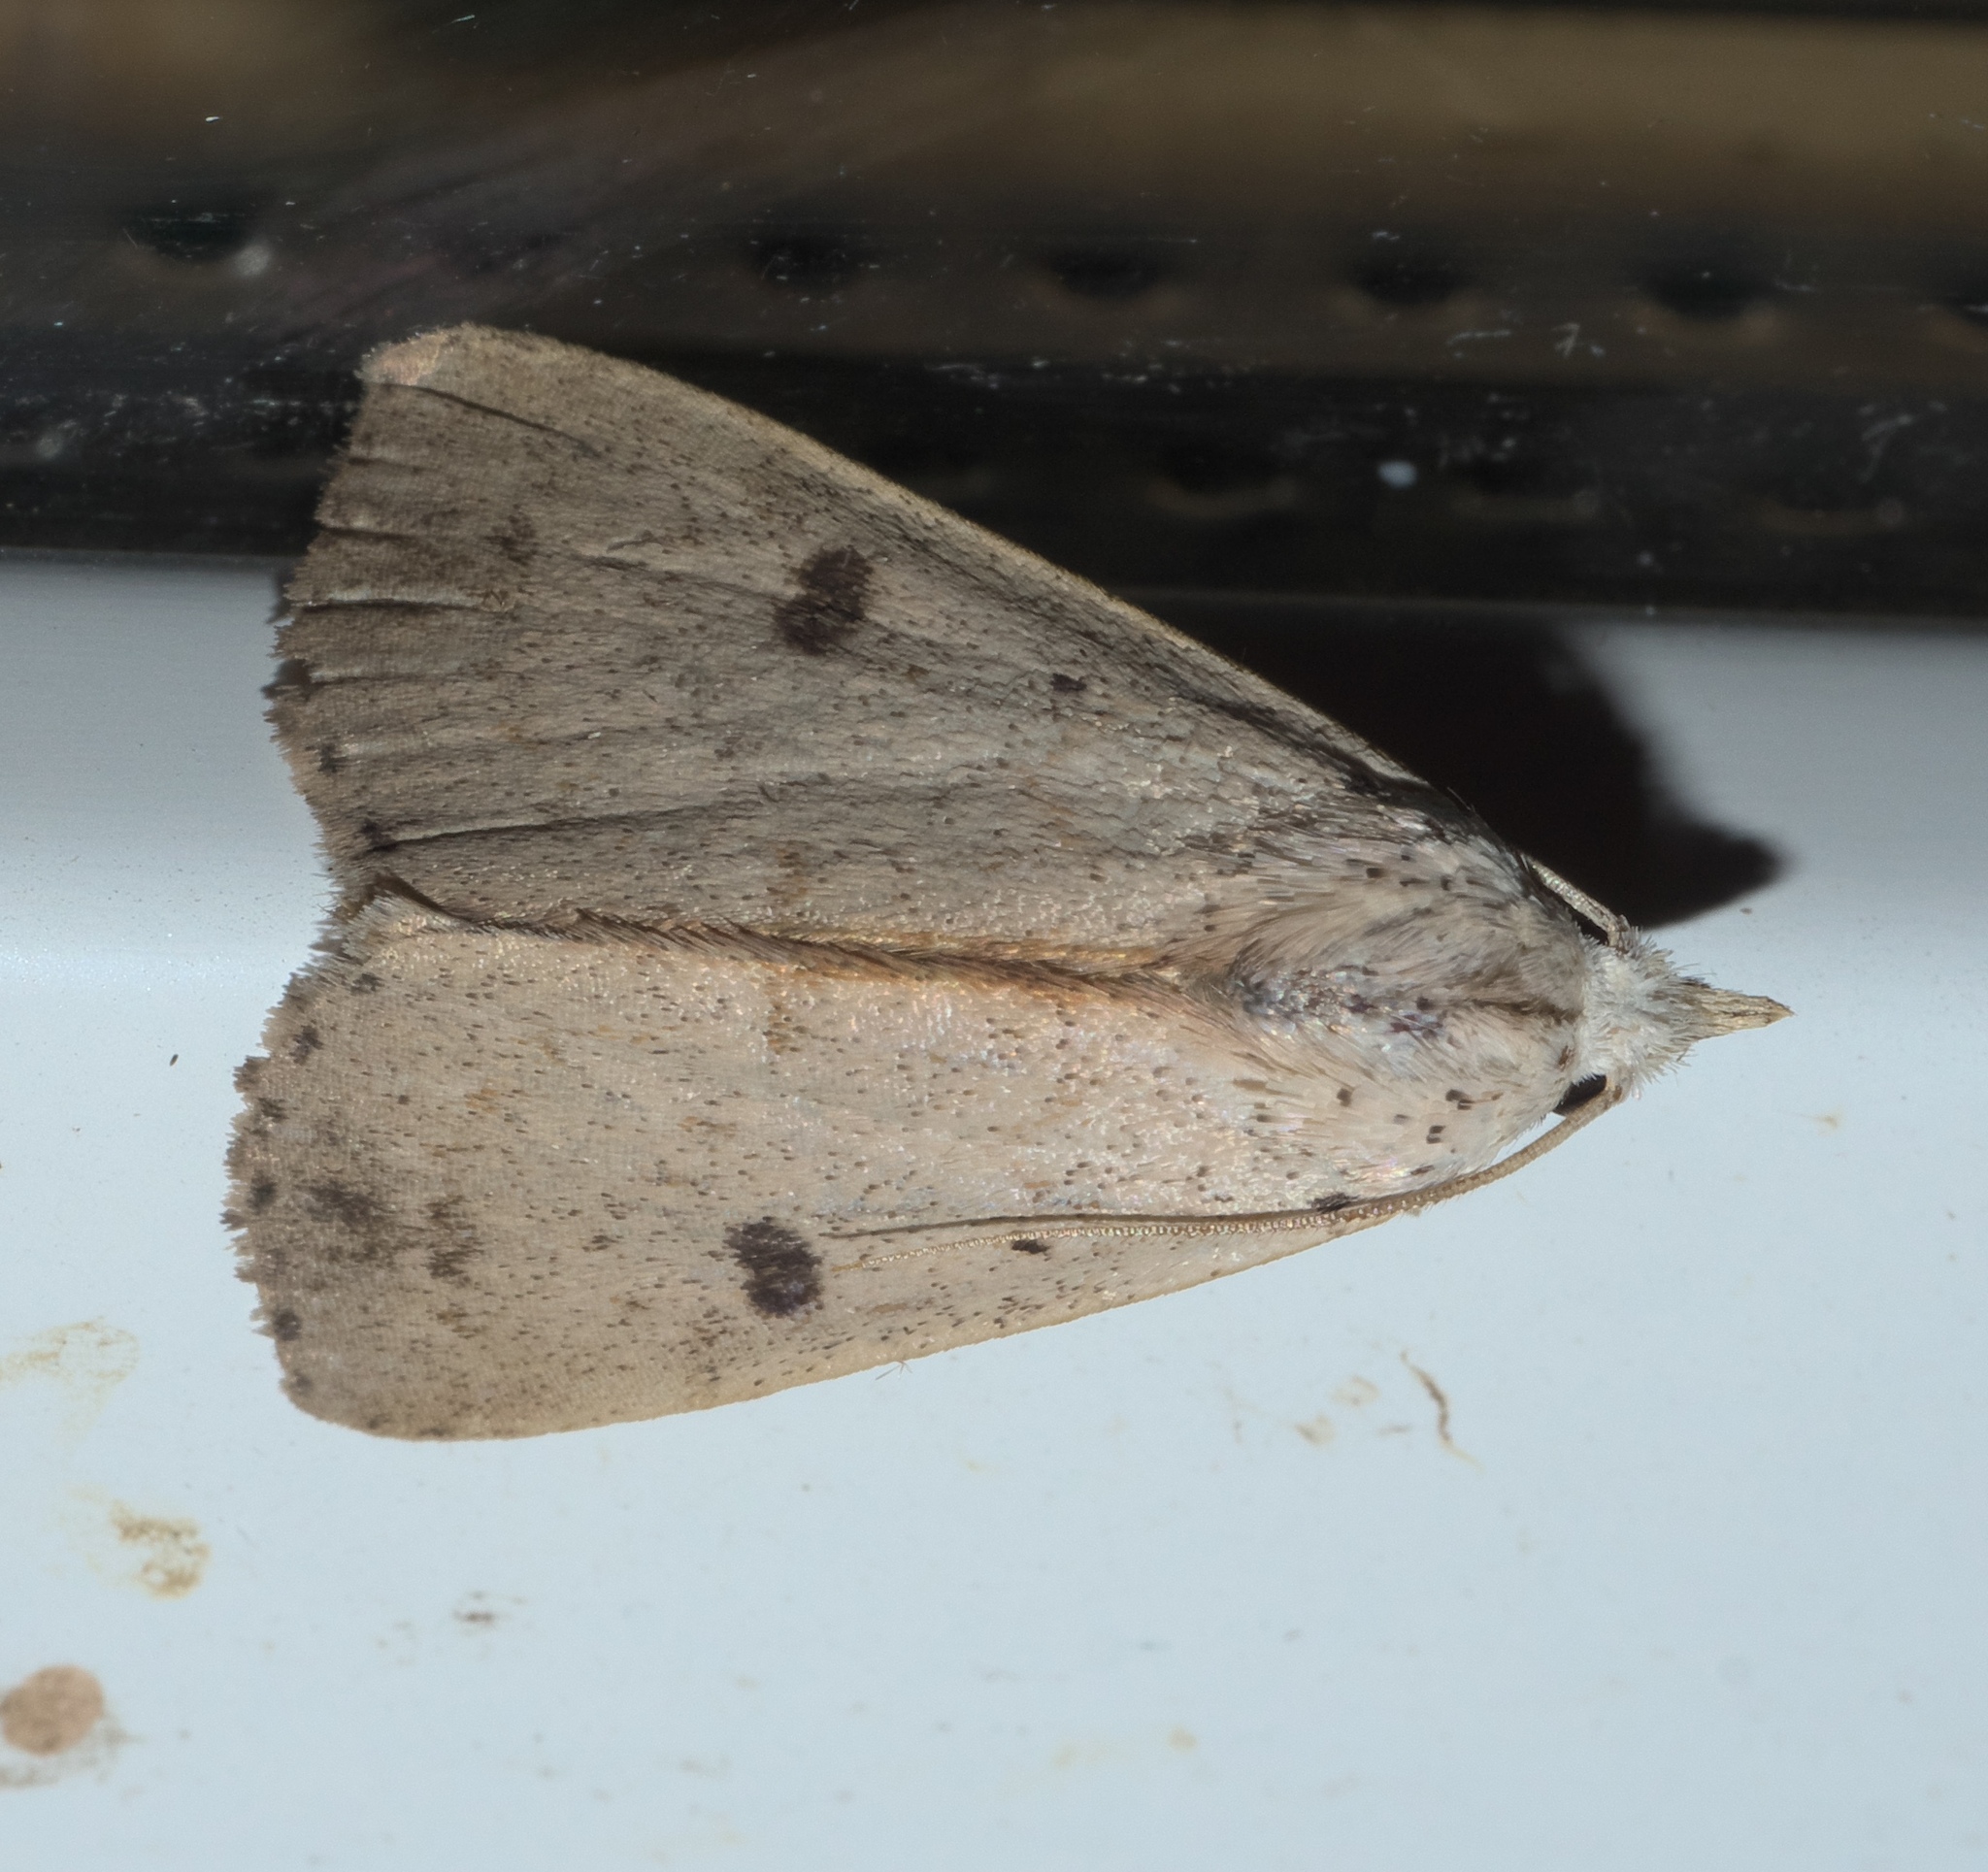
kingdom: Animalia
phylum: Arthropoda
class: Insecta
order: Lepidoptera
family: Erebidae
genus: Scolecocampa
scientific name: Scolecocampa liburna
